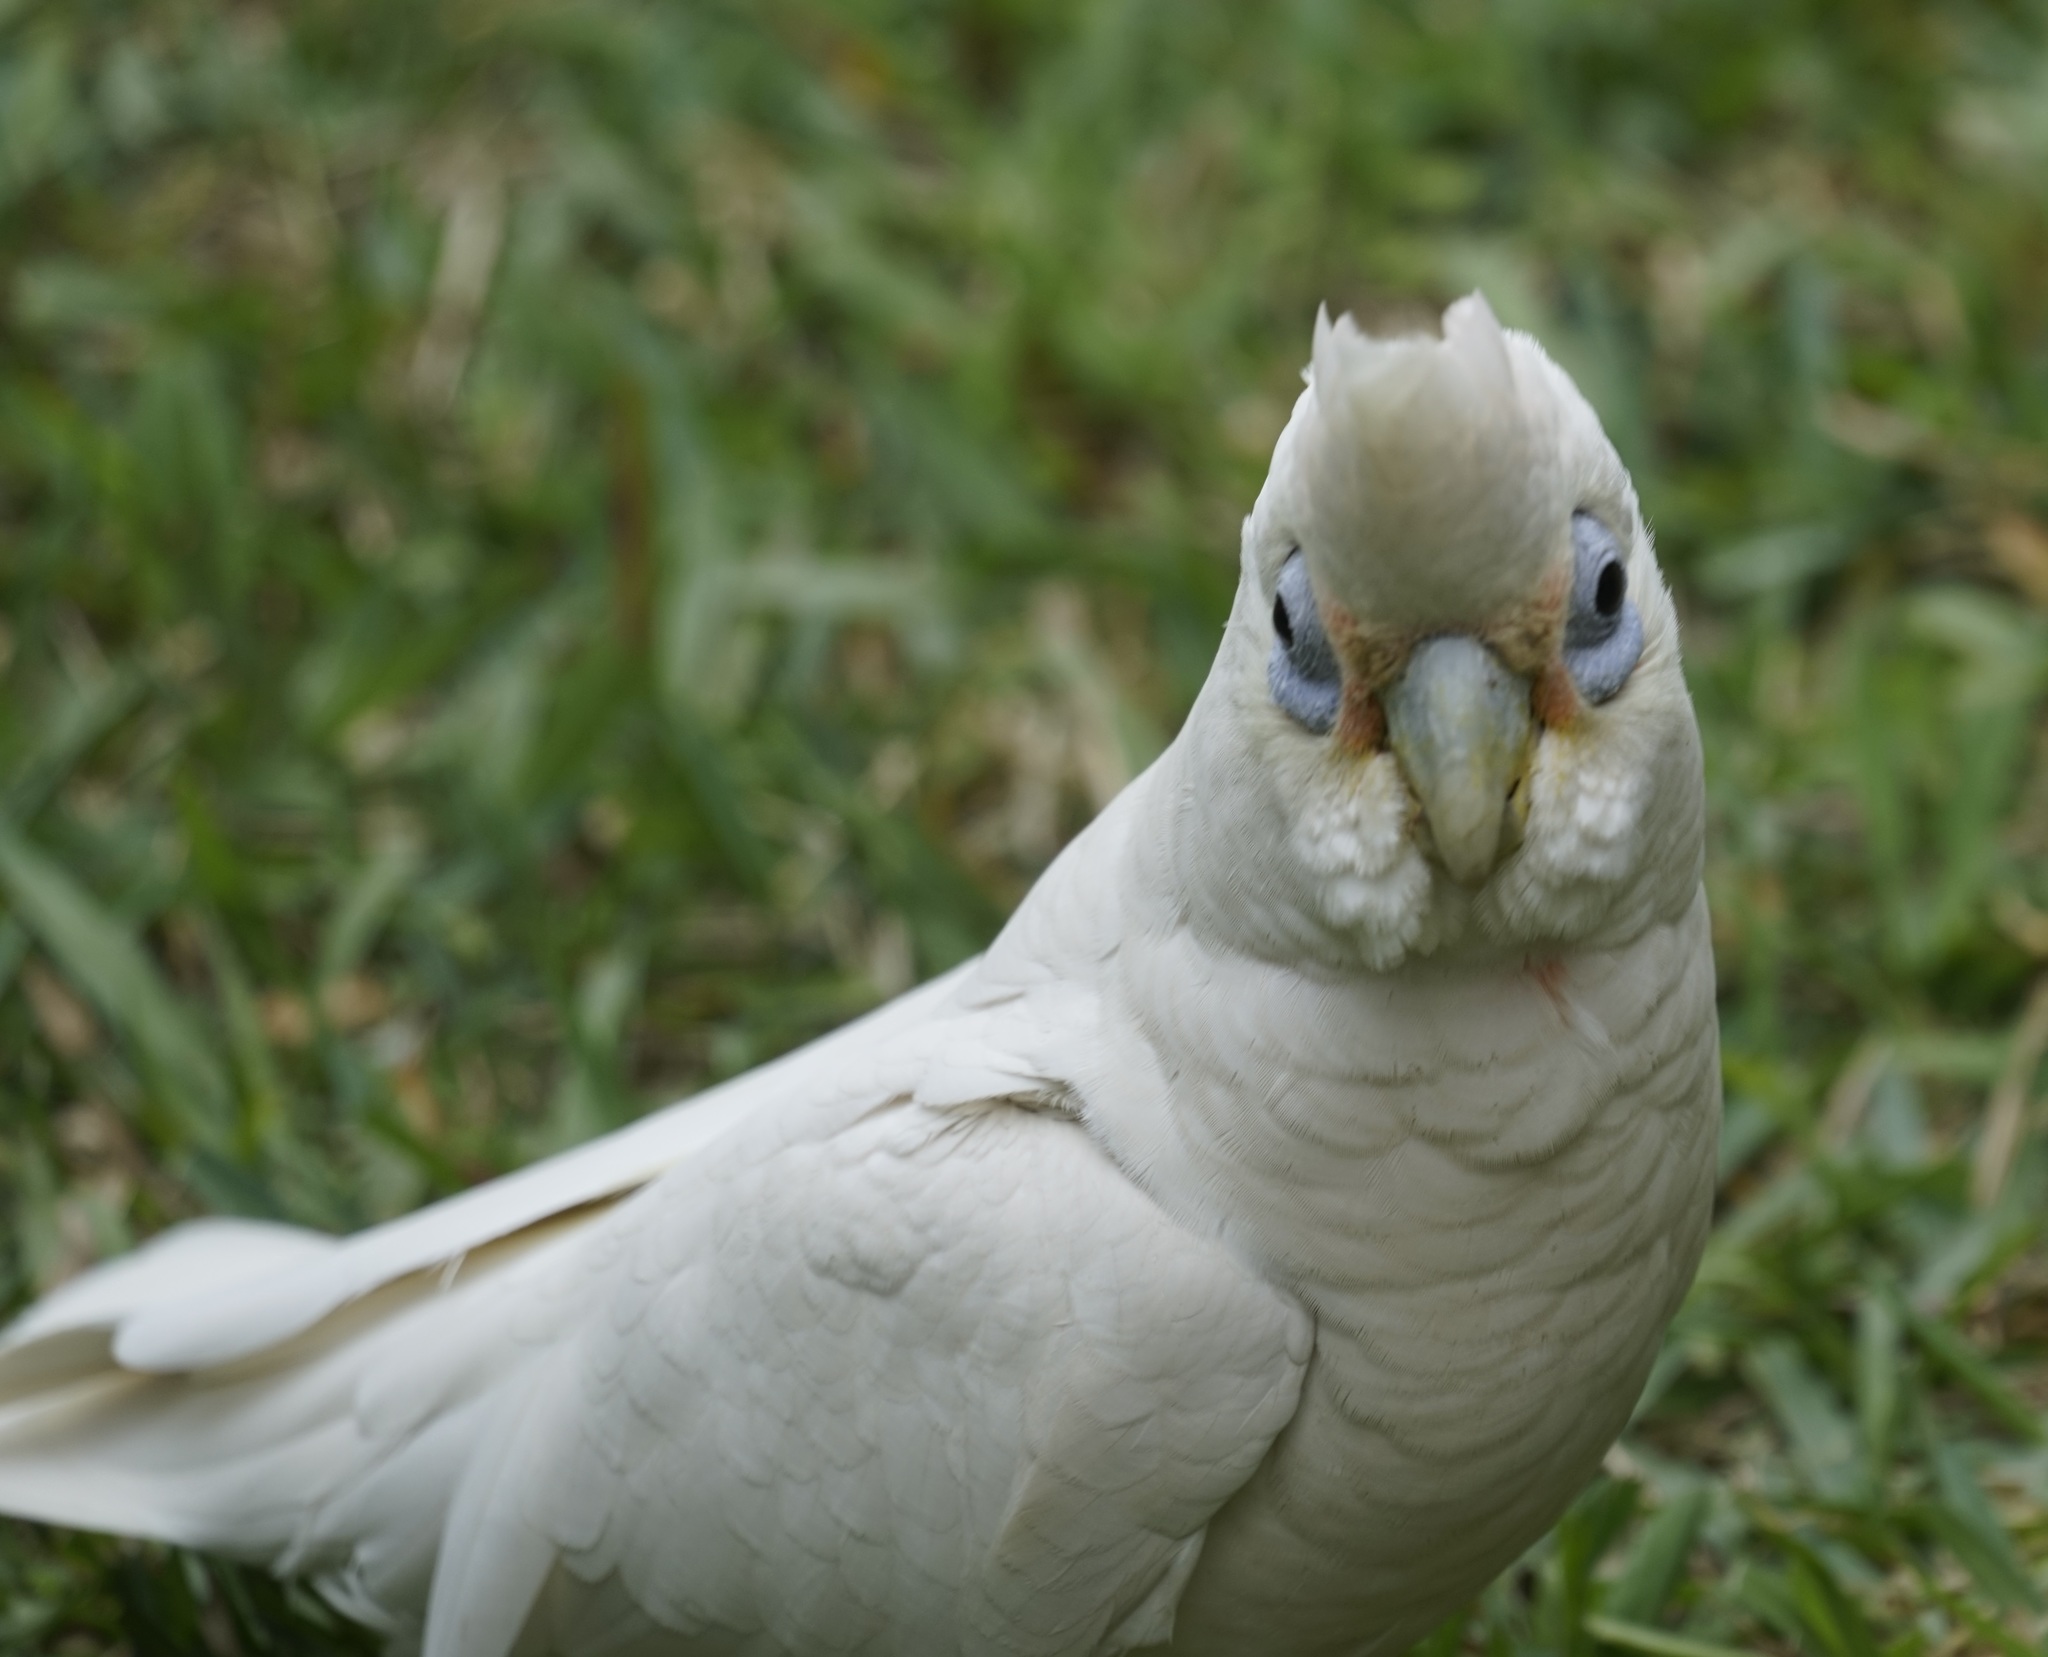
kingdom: Animalia
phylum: Chordata
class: Aves
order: Psittaciformes
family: Psittacidae
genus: Cacatua
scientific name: Cacatua sanguinea
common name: Little corella
